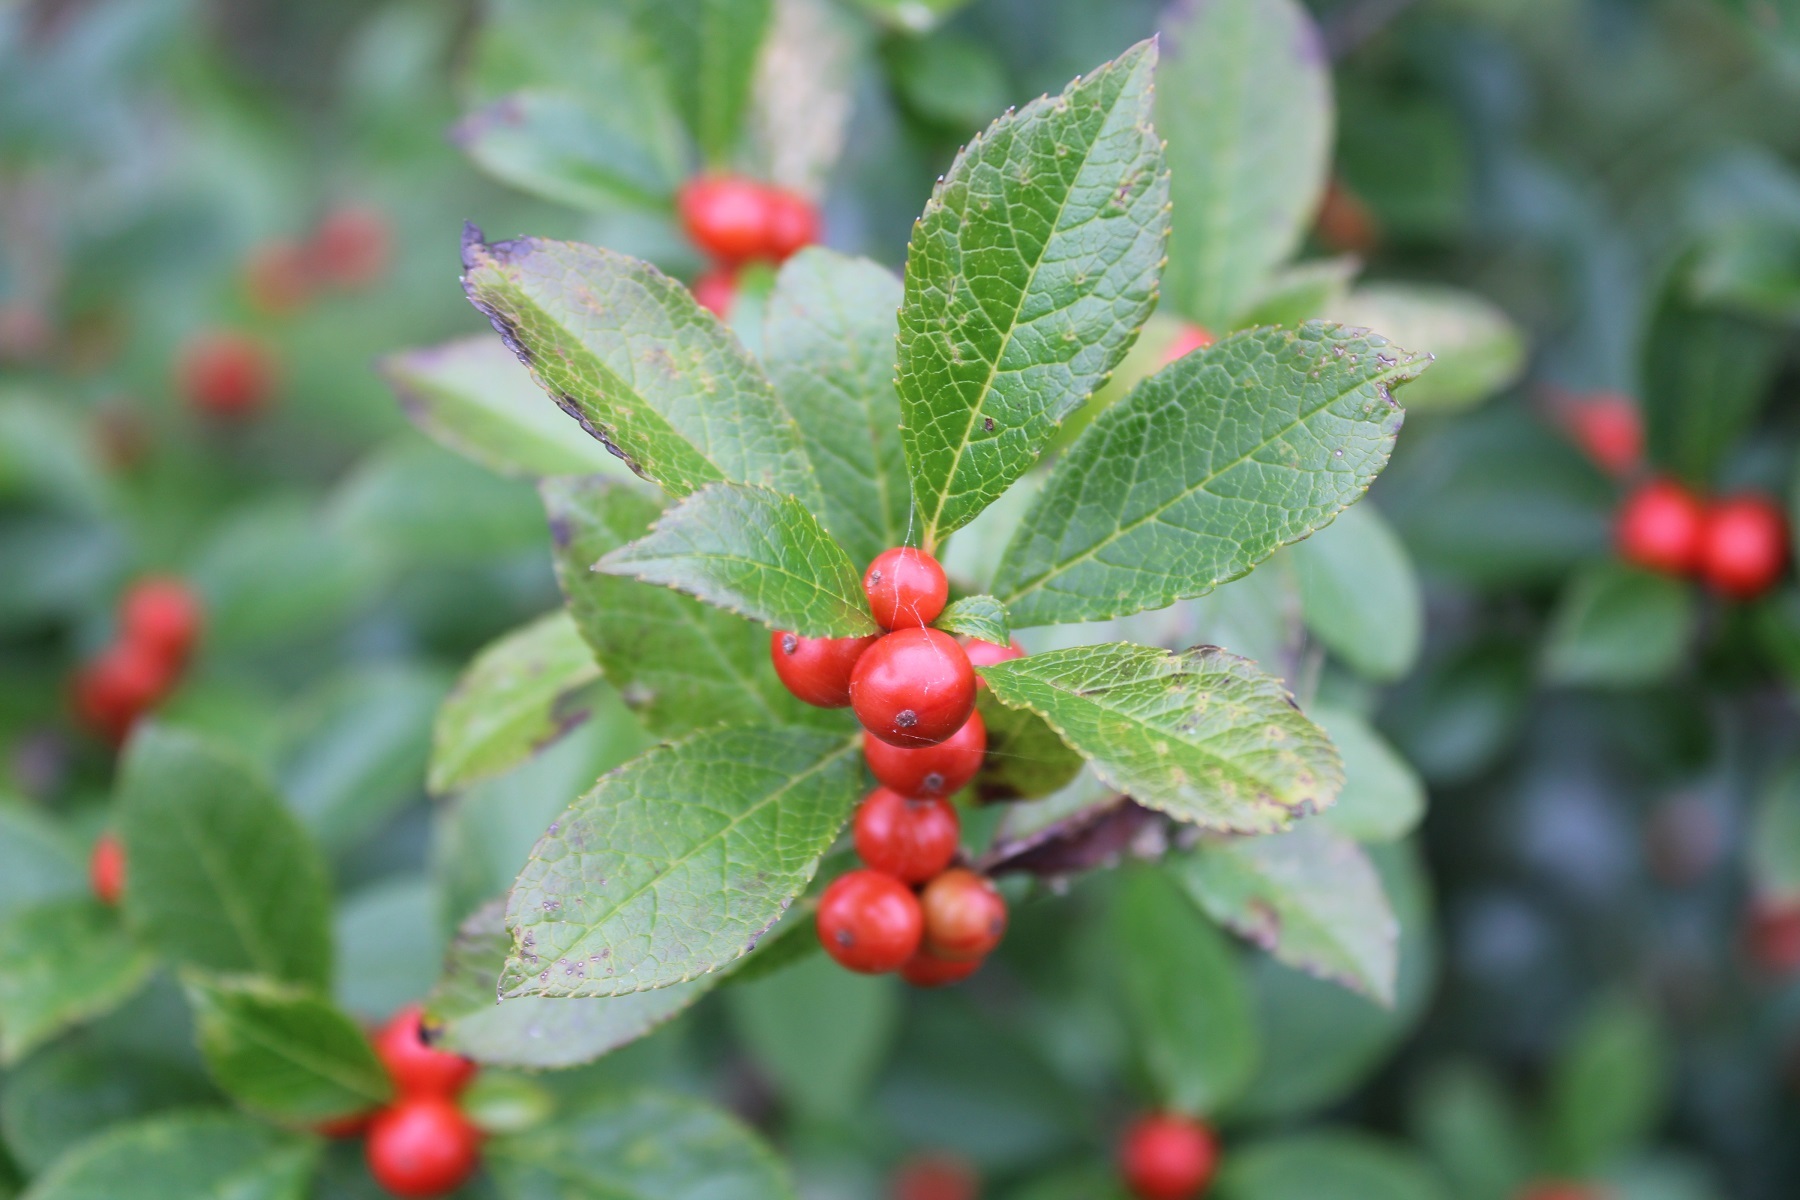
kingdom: Plantae
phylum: Tracheophyta
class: Magnoliopsida
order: Aquifoliales
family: Aquifoliaceae
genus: Ilex
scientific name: Ilex verticillata
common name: Virginia winterberry
